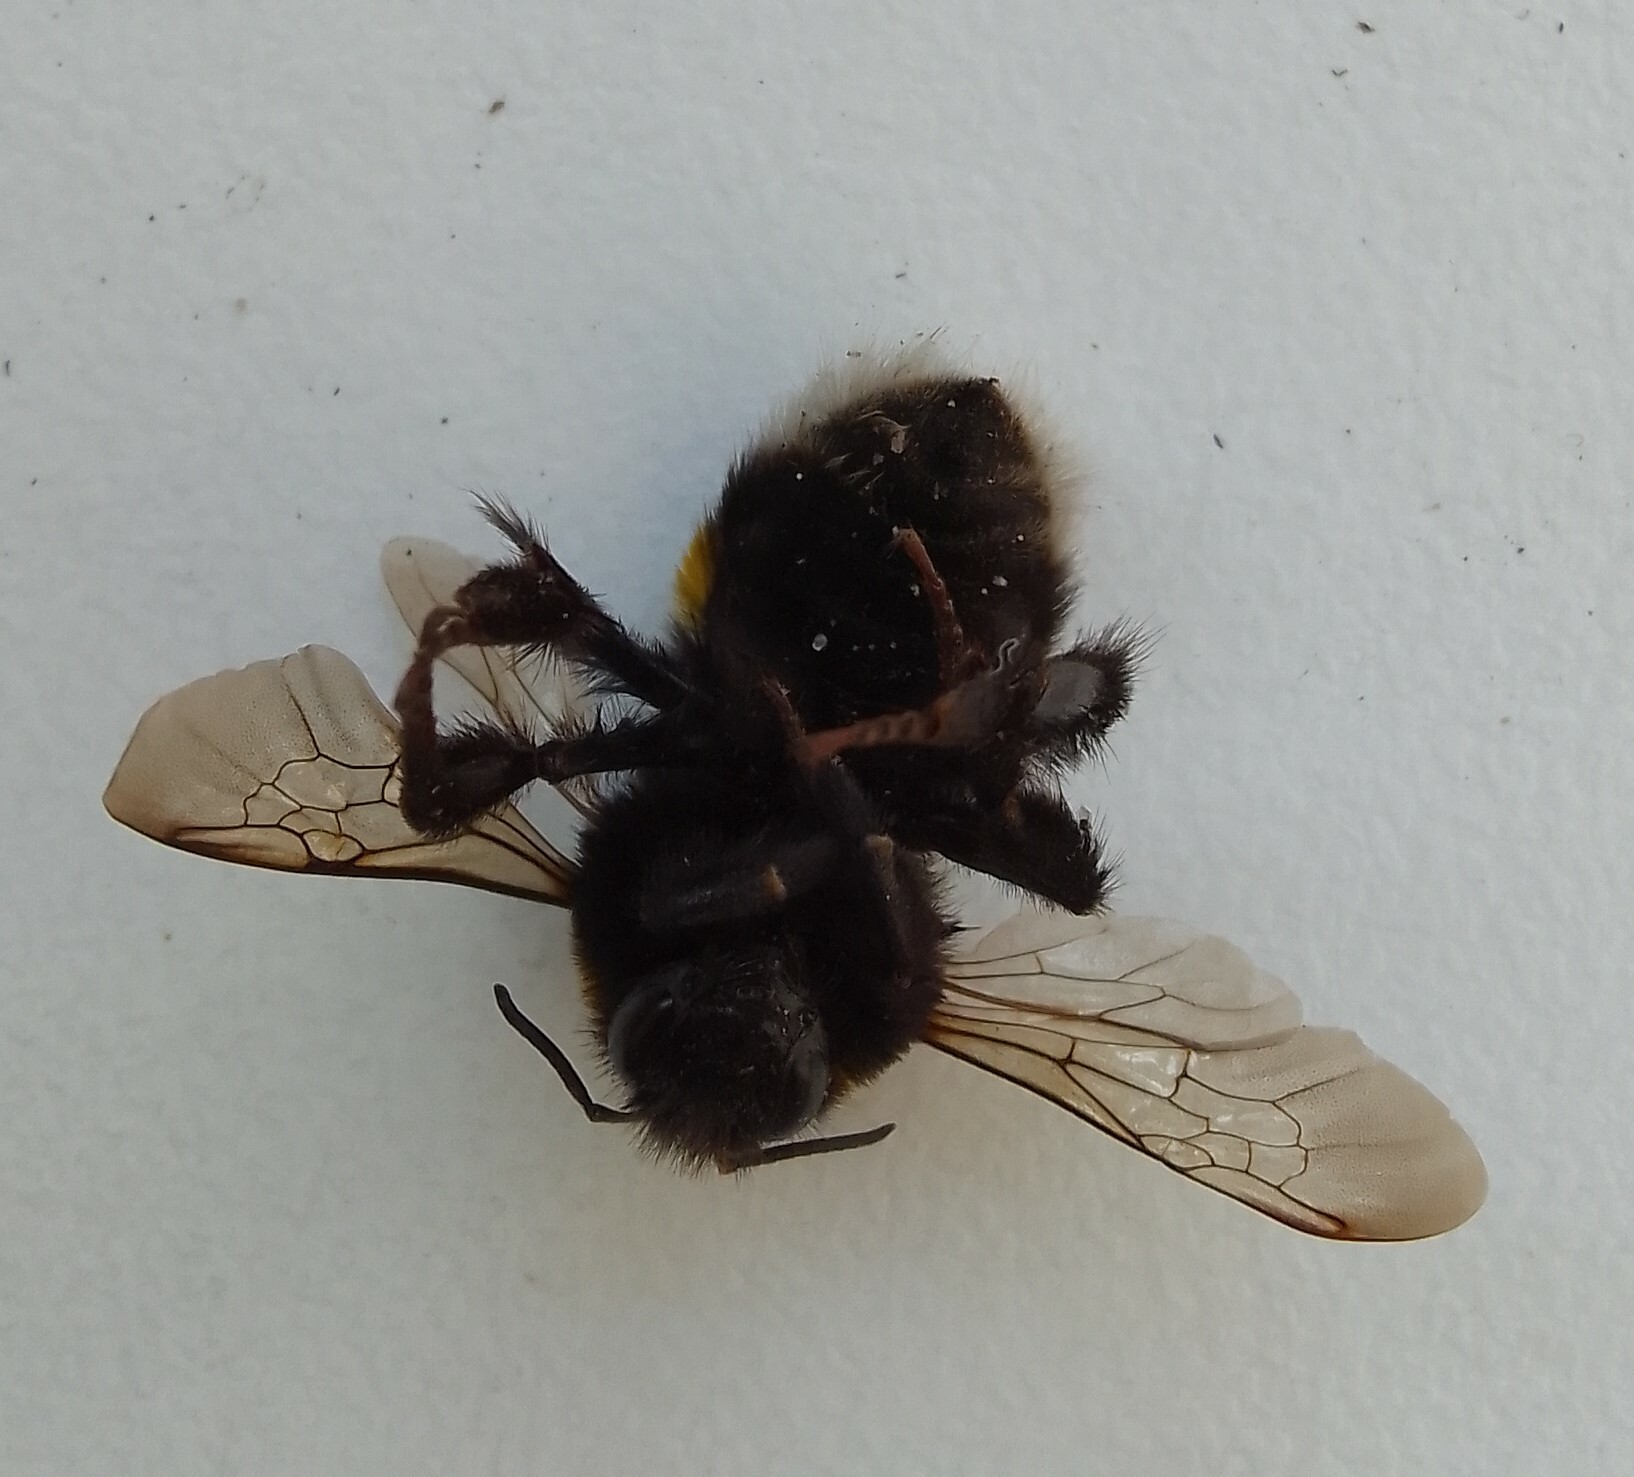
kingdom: Animalia
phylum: Arthropoda
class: Insecta
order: Hymenoptera
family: Apidae
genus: Bombus
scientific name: Bombus
